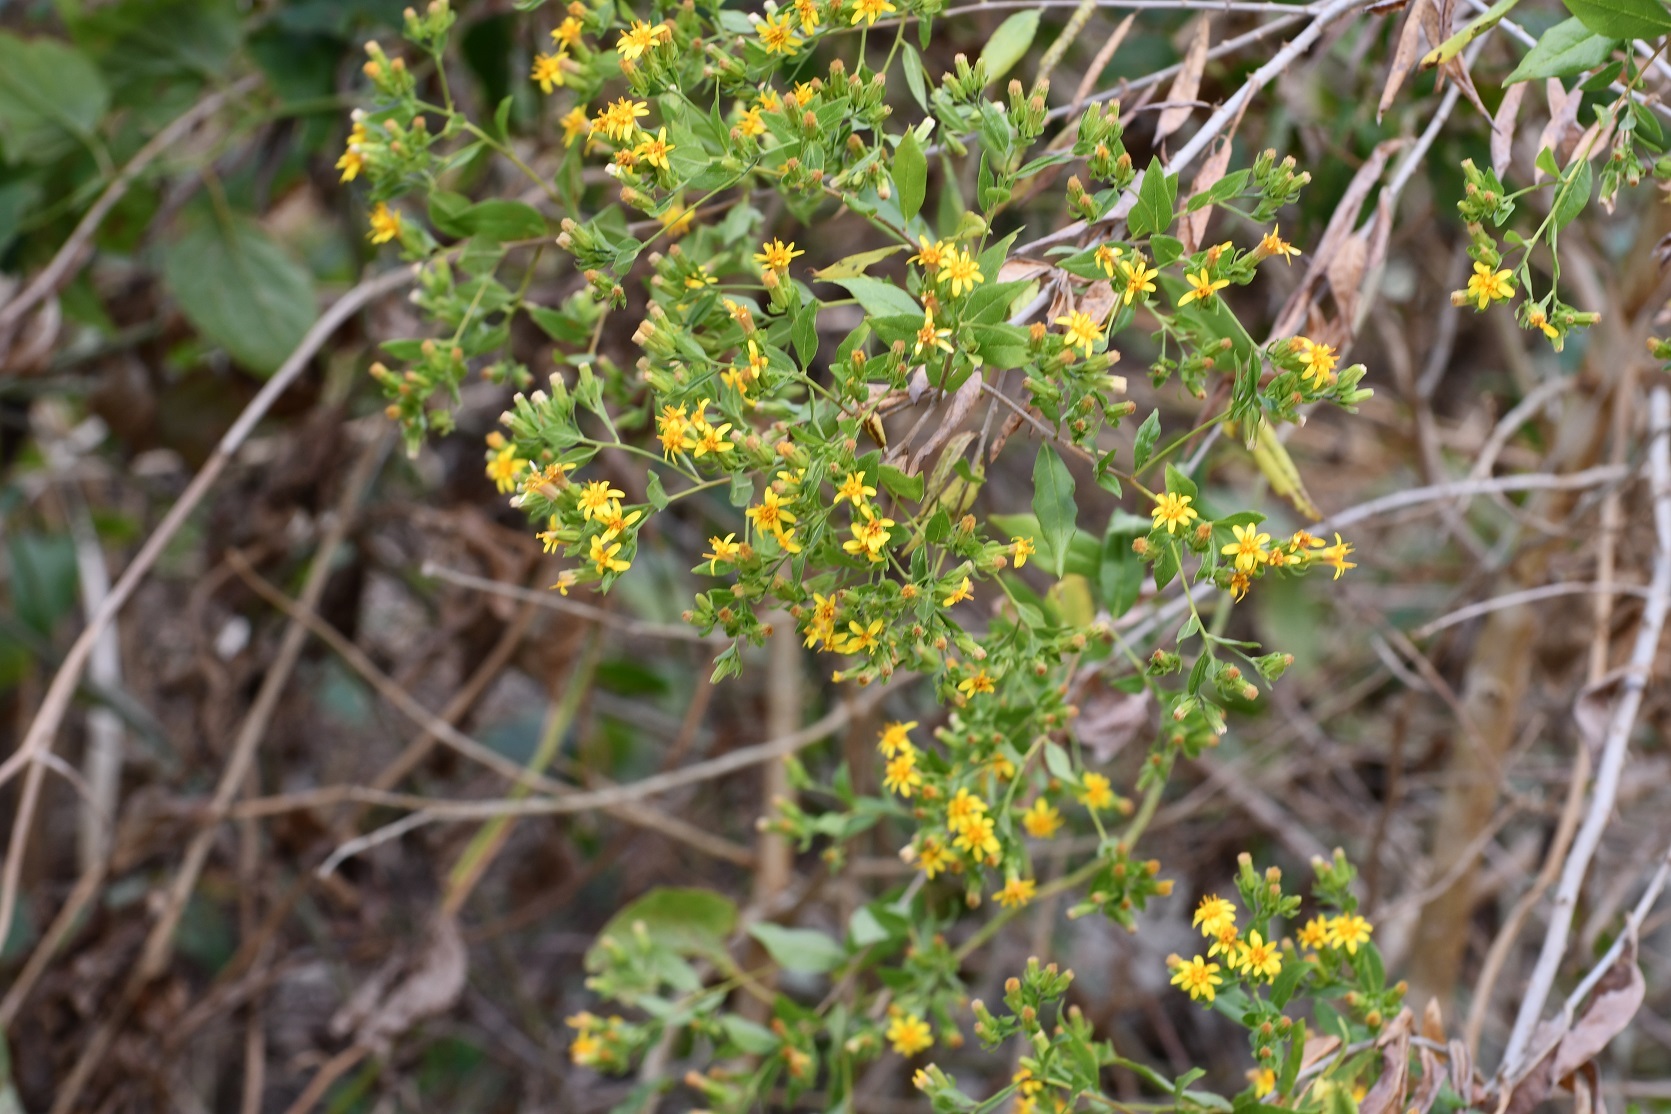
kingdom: Plantae
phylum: Tracheophyta
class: Magnoliopsida
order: Asterales
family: Asteraceae
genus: Trixis
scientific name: Trixis inula
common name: Tropical threefold
